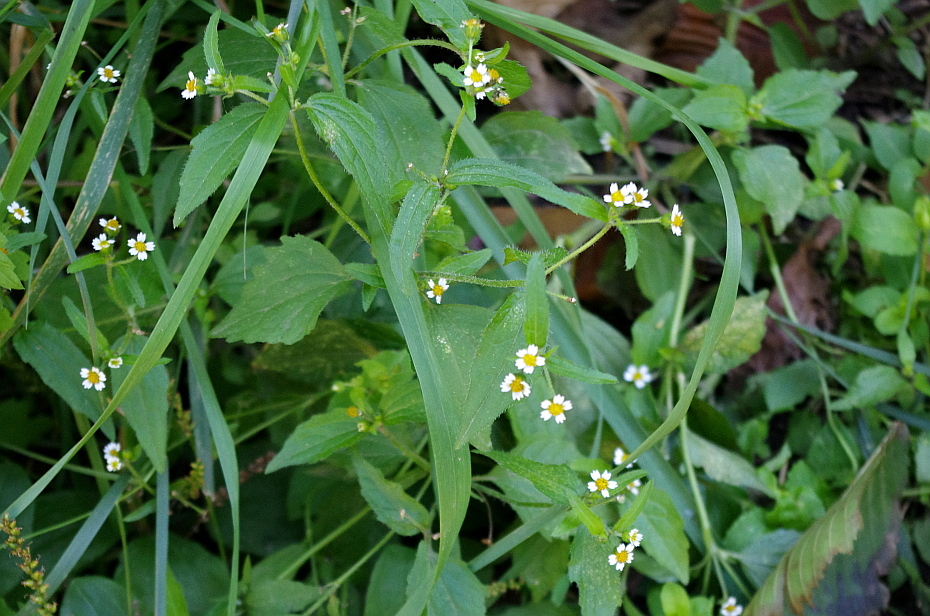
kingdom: Plantae
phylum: Tracheophyta
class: Magnoliopsida
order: Asterales
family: Asteraceae
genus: Galinsoga
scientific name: Galinsoga quadriradiata
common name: Shaggy soldier
